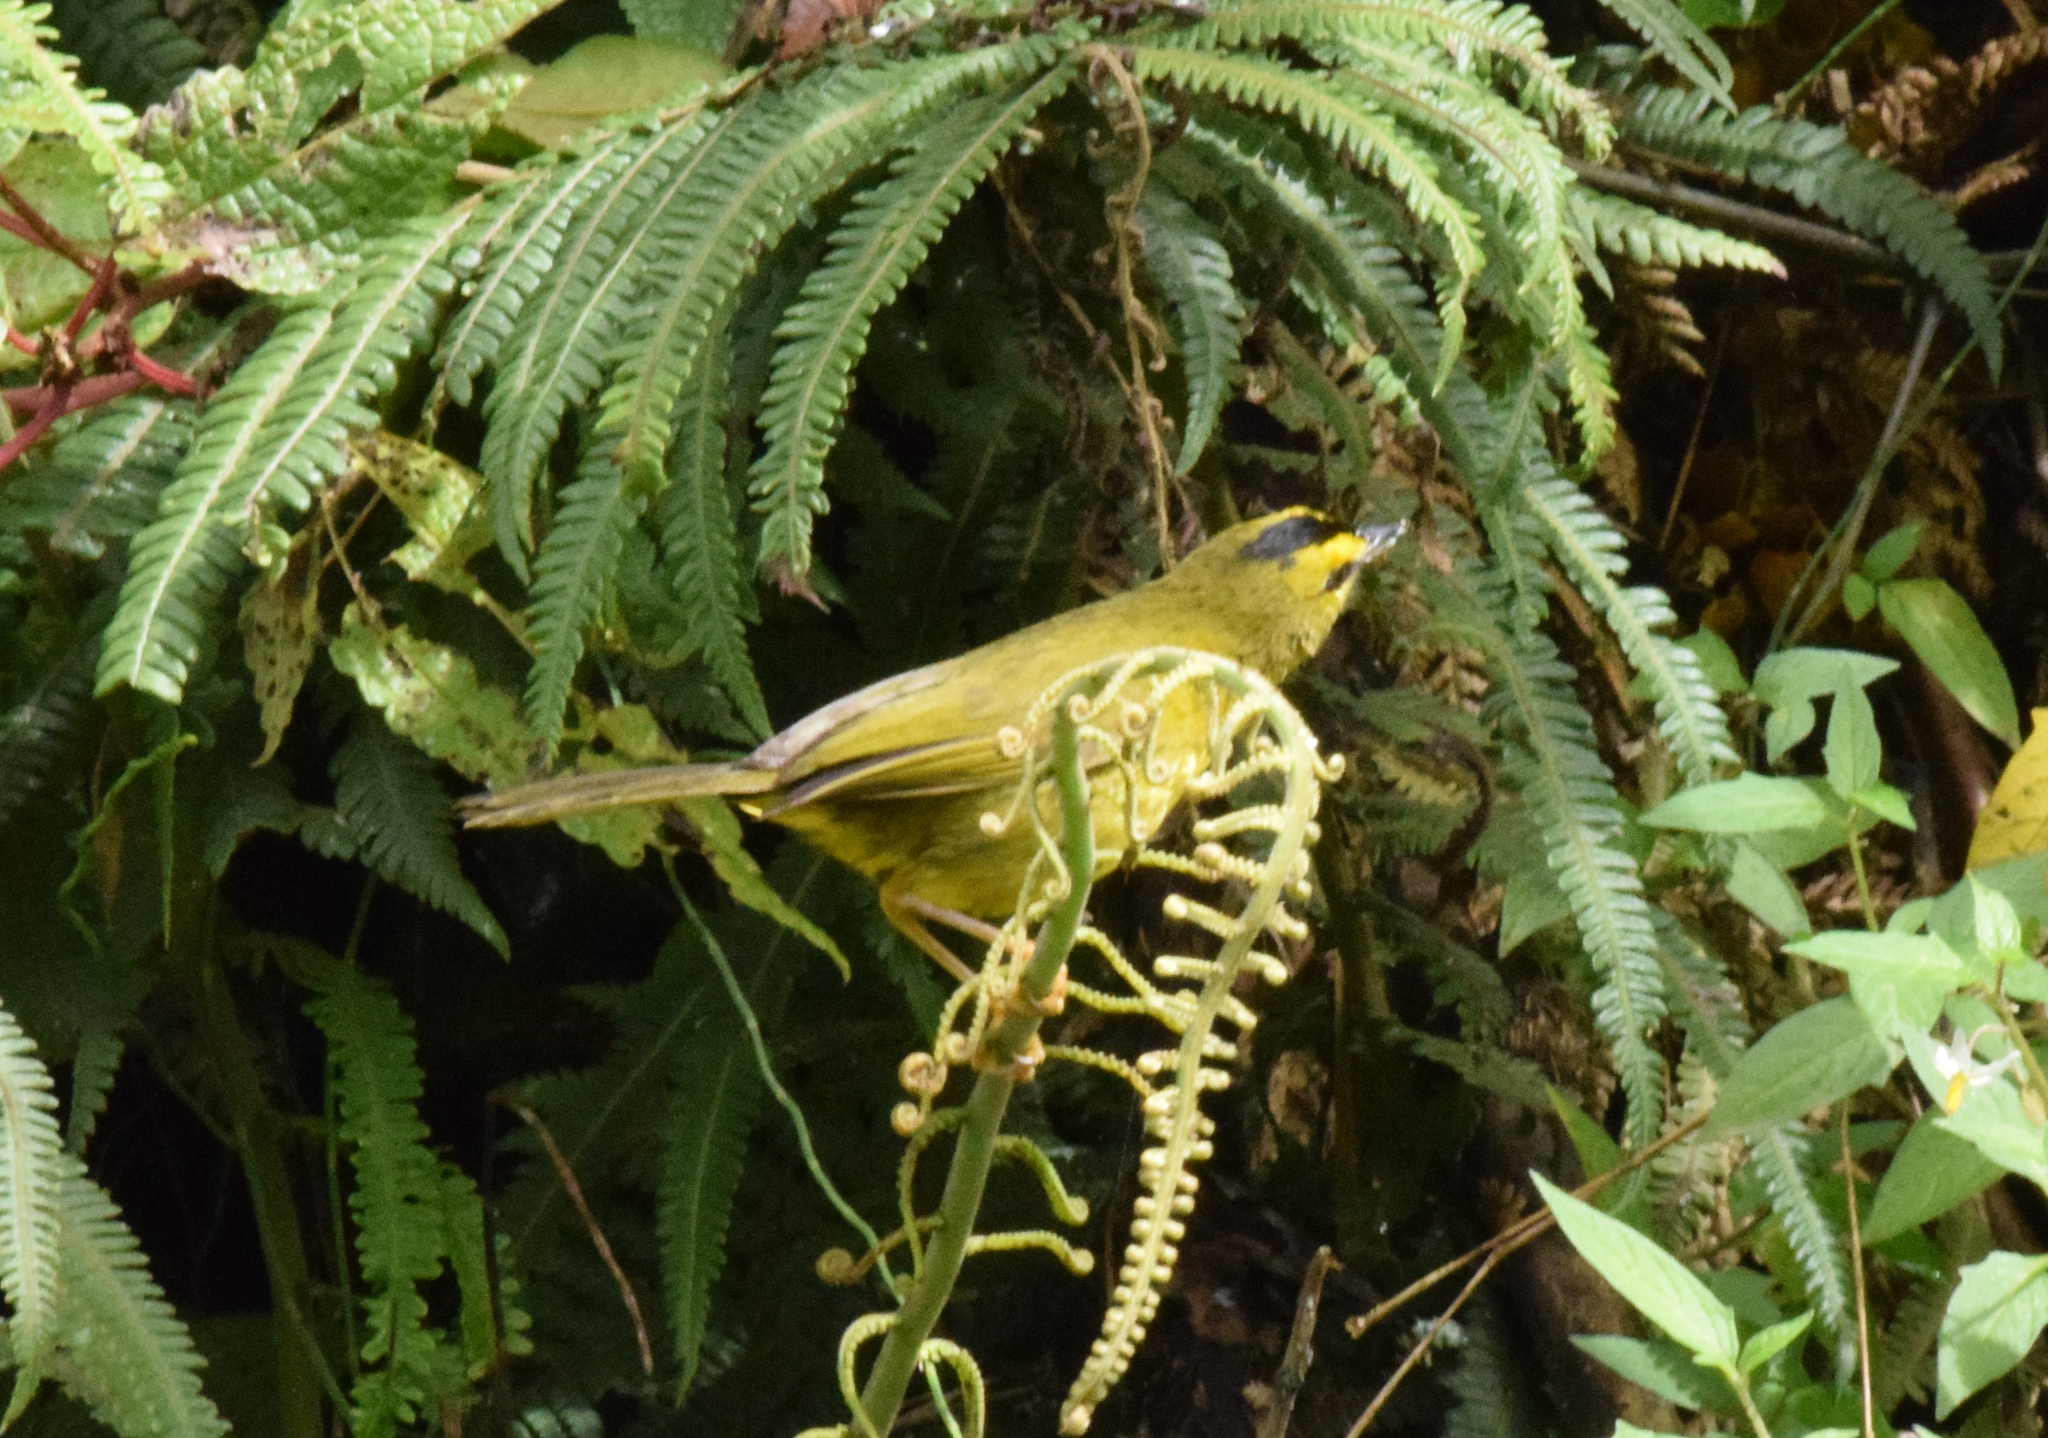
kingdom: Animalia
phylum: Chordata
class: Aves
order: Passeriformes
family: Parulidae
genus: Myiothlypis
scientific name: Myiothlypis nigrocristata
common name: Black-crested warbler
